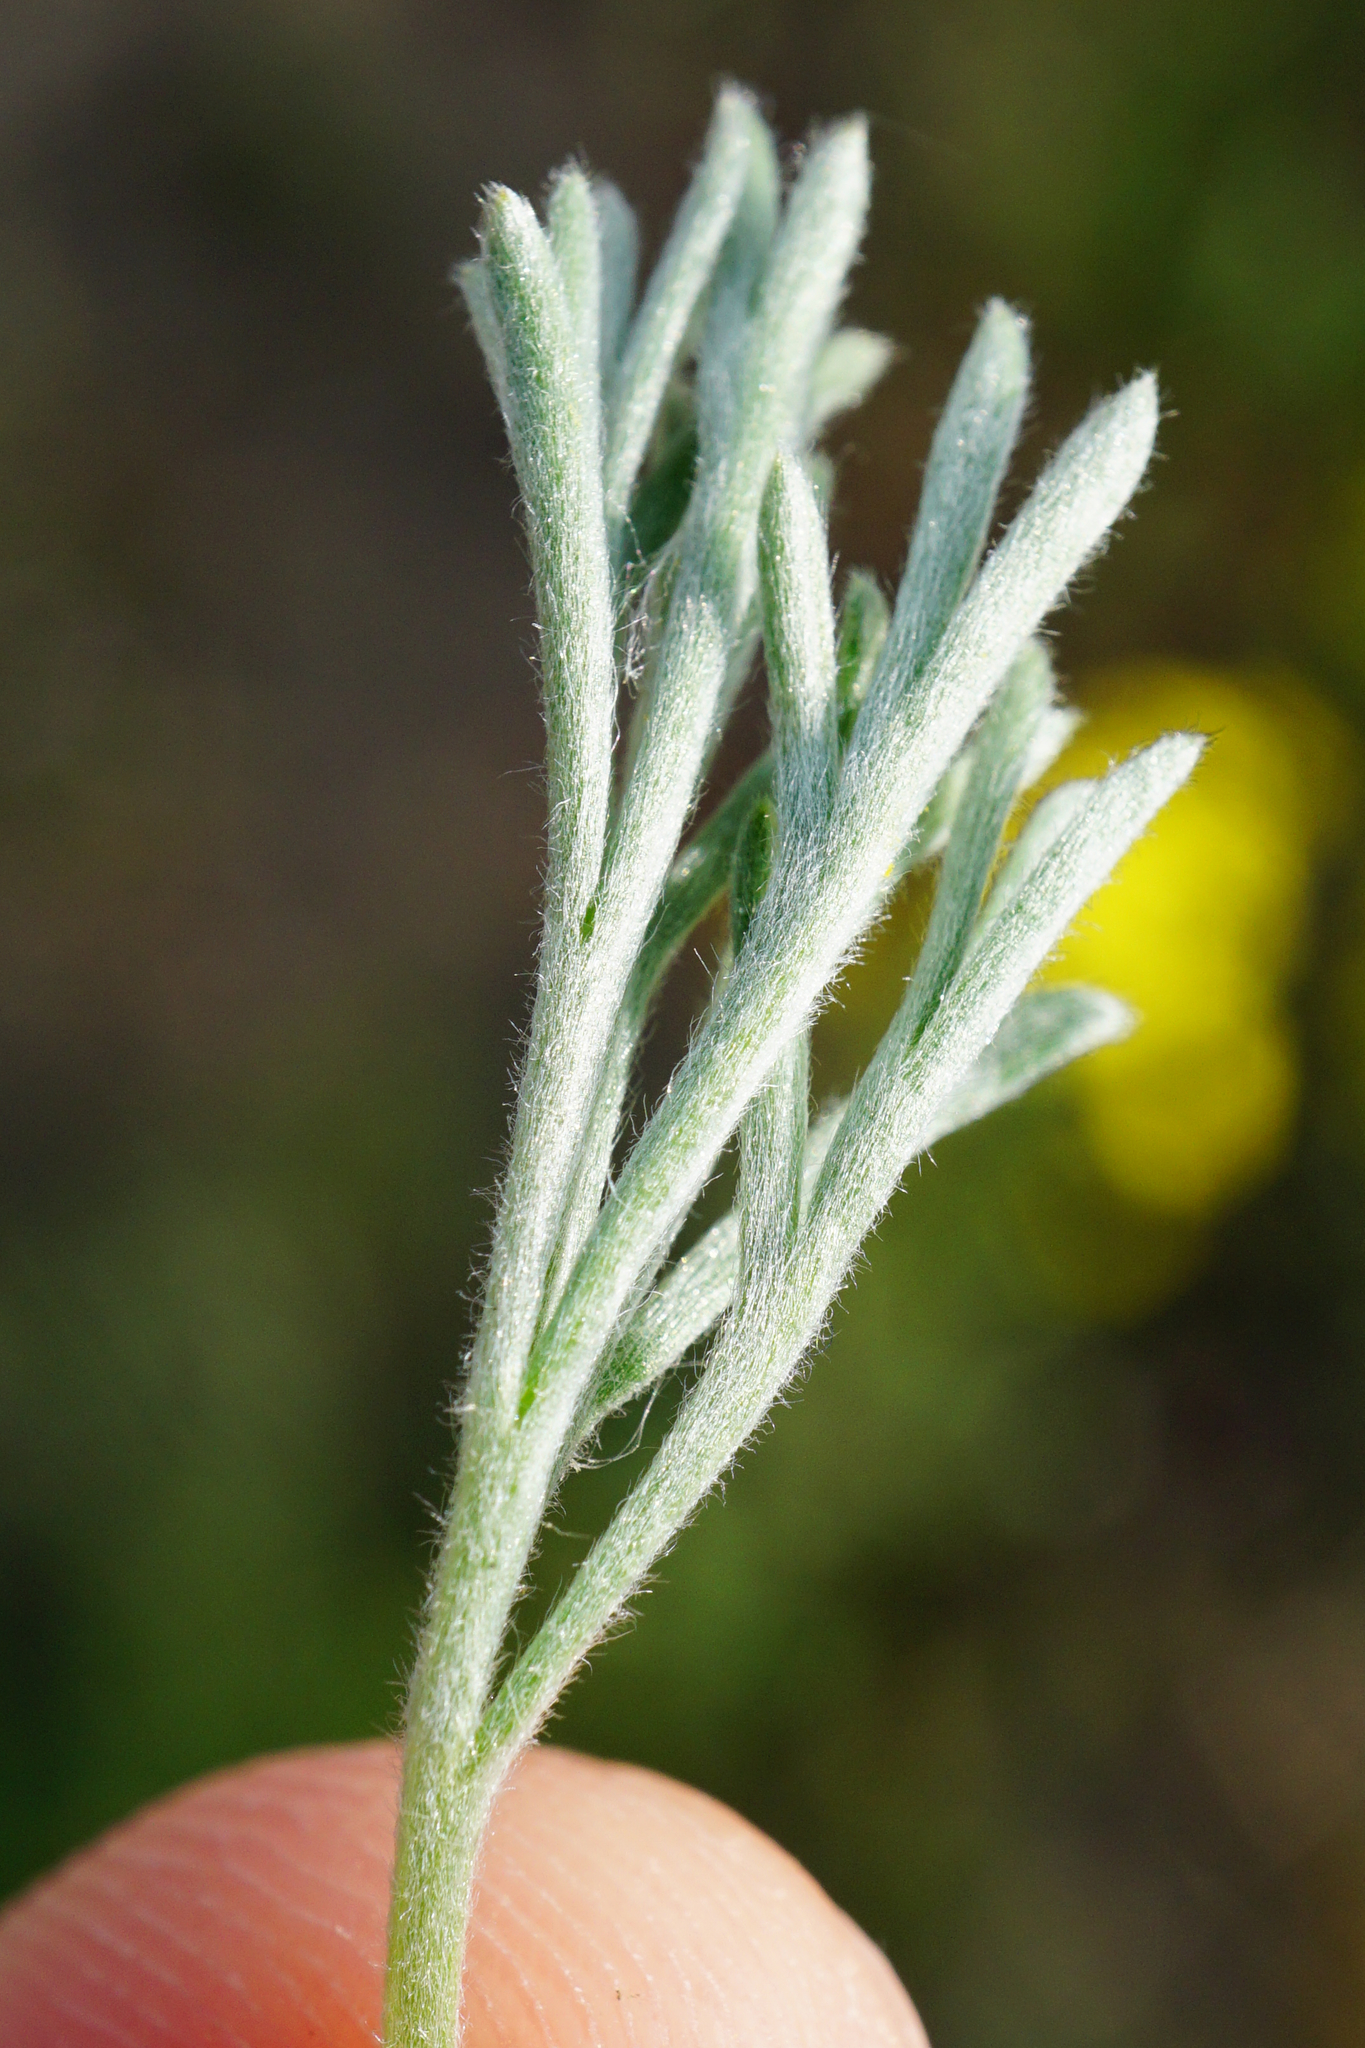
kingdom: Plantae
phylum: Tracheophyta
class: Magnoliopsida
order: Asterales
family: Asteraceae
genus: Artemisia
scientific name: Artemisia campestris
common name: Field wormwood
